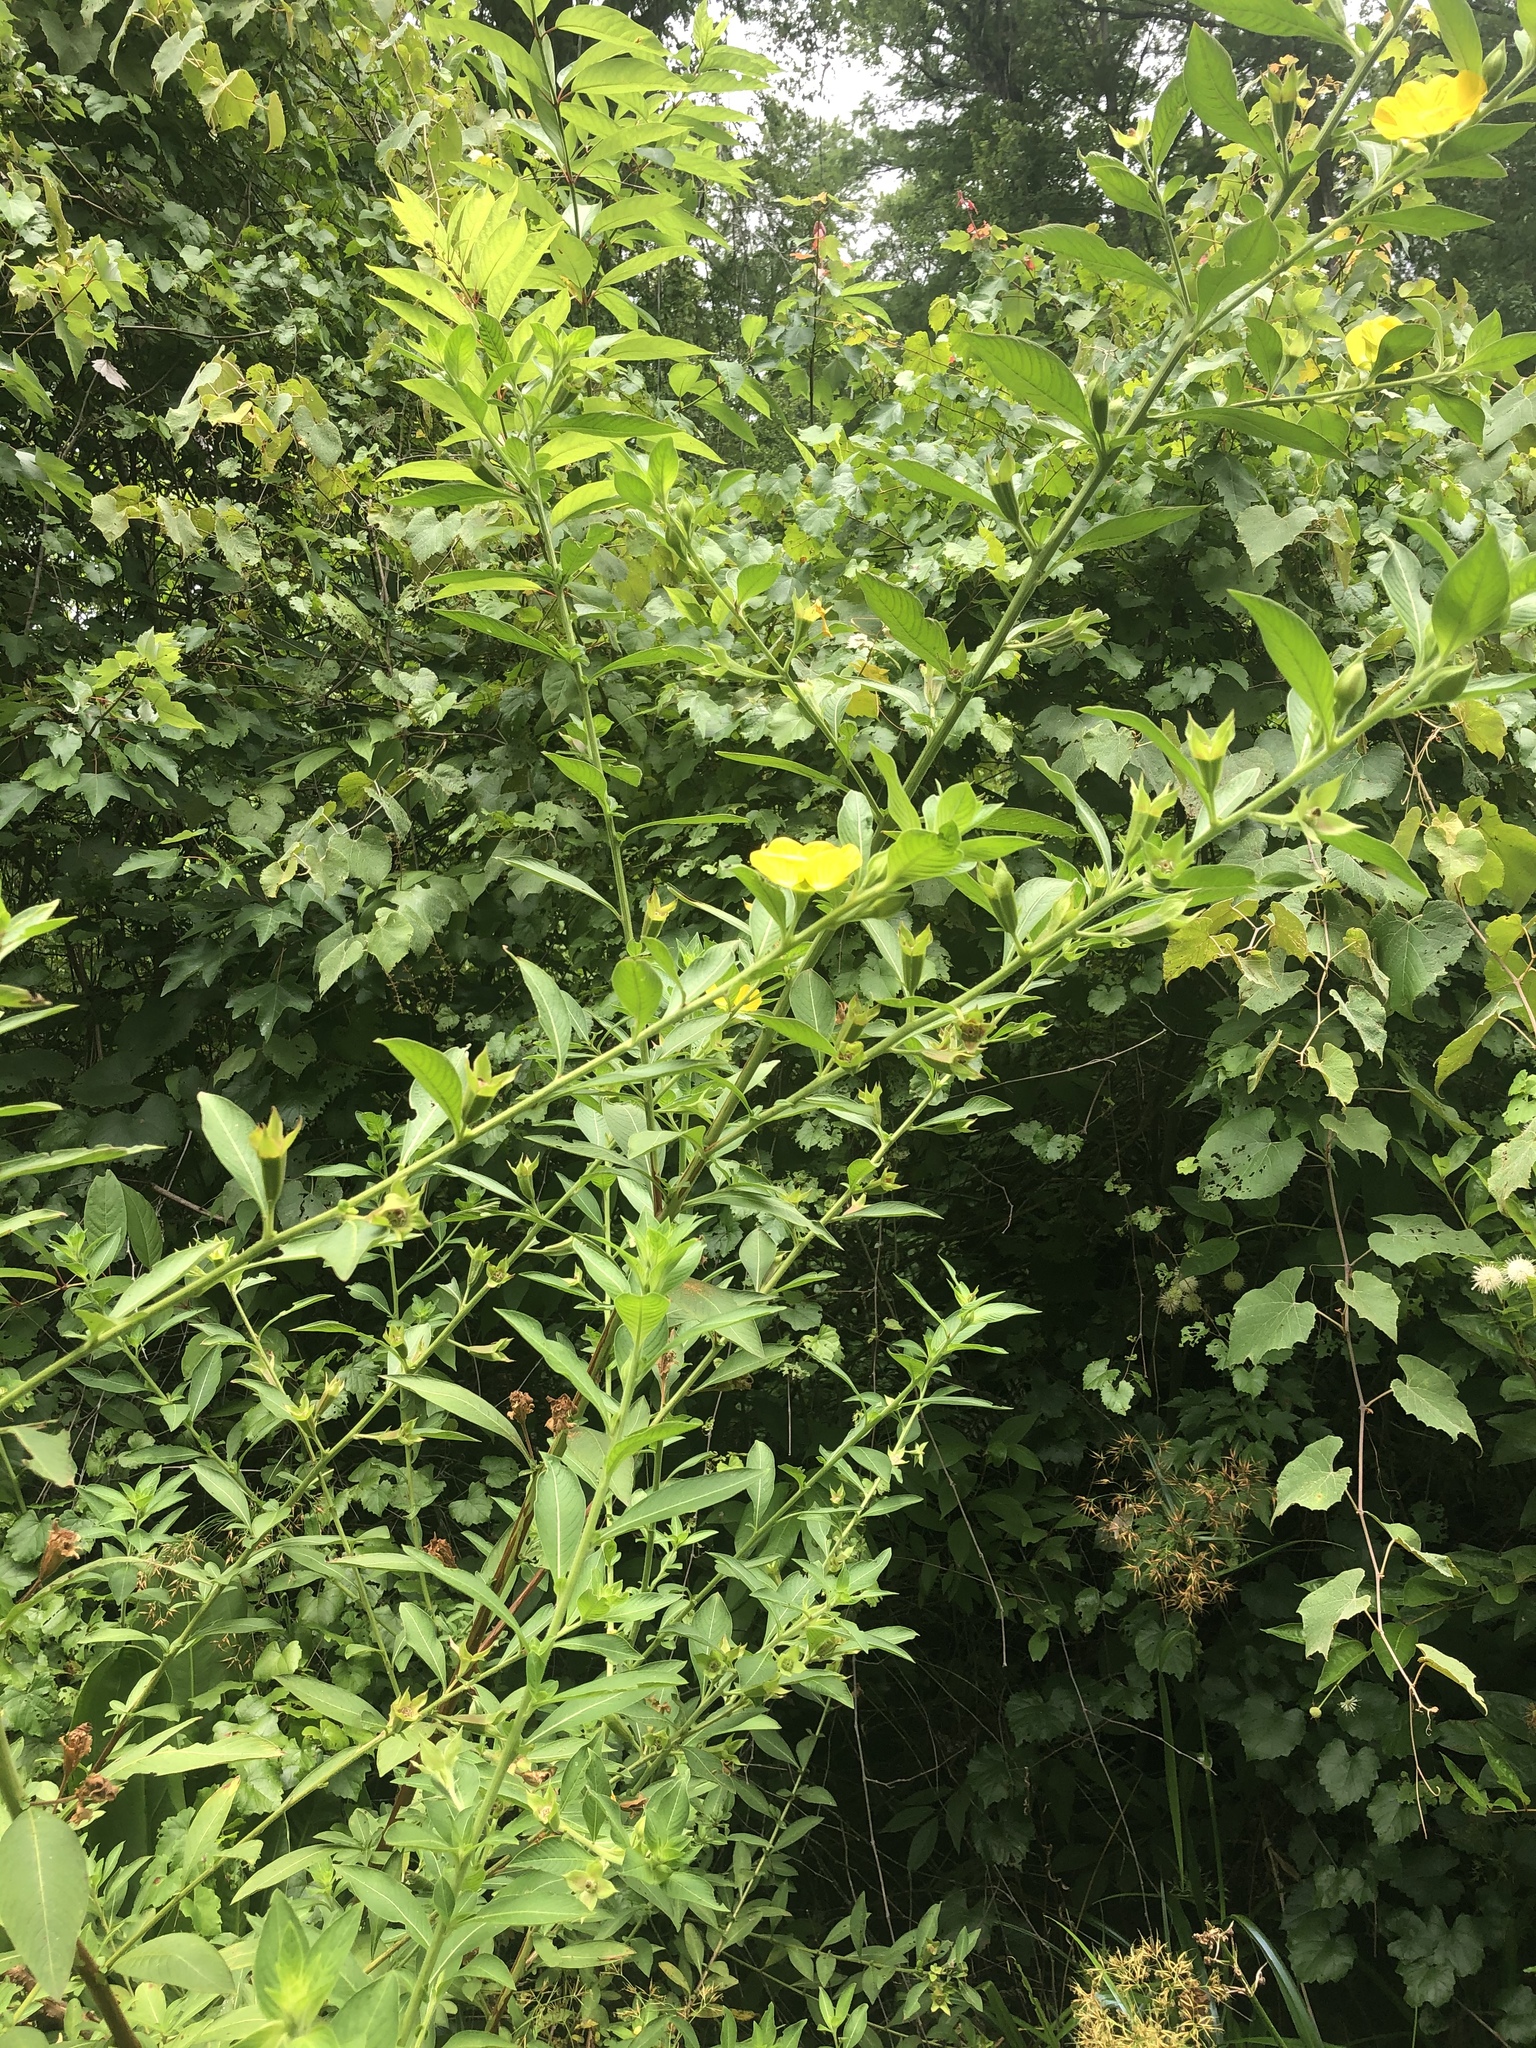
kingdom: Plantae
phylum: Tracheophyta
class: Magnoliopsida
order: Myrtales
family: Onagraceae
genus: Ludwigia
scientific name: Ludwigia peruviana
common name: Peruvian primrose-willow
